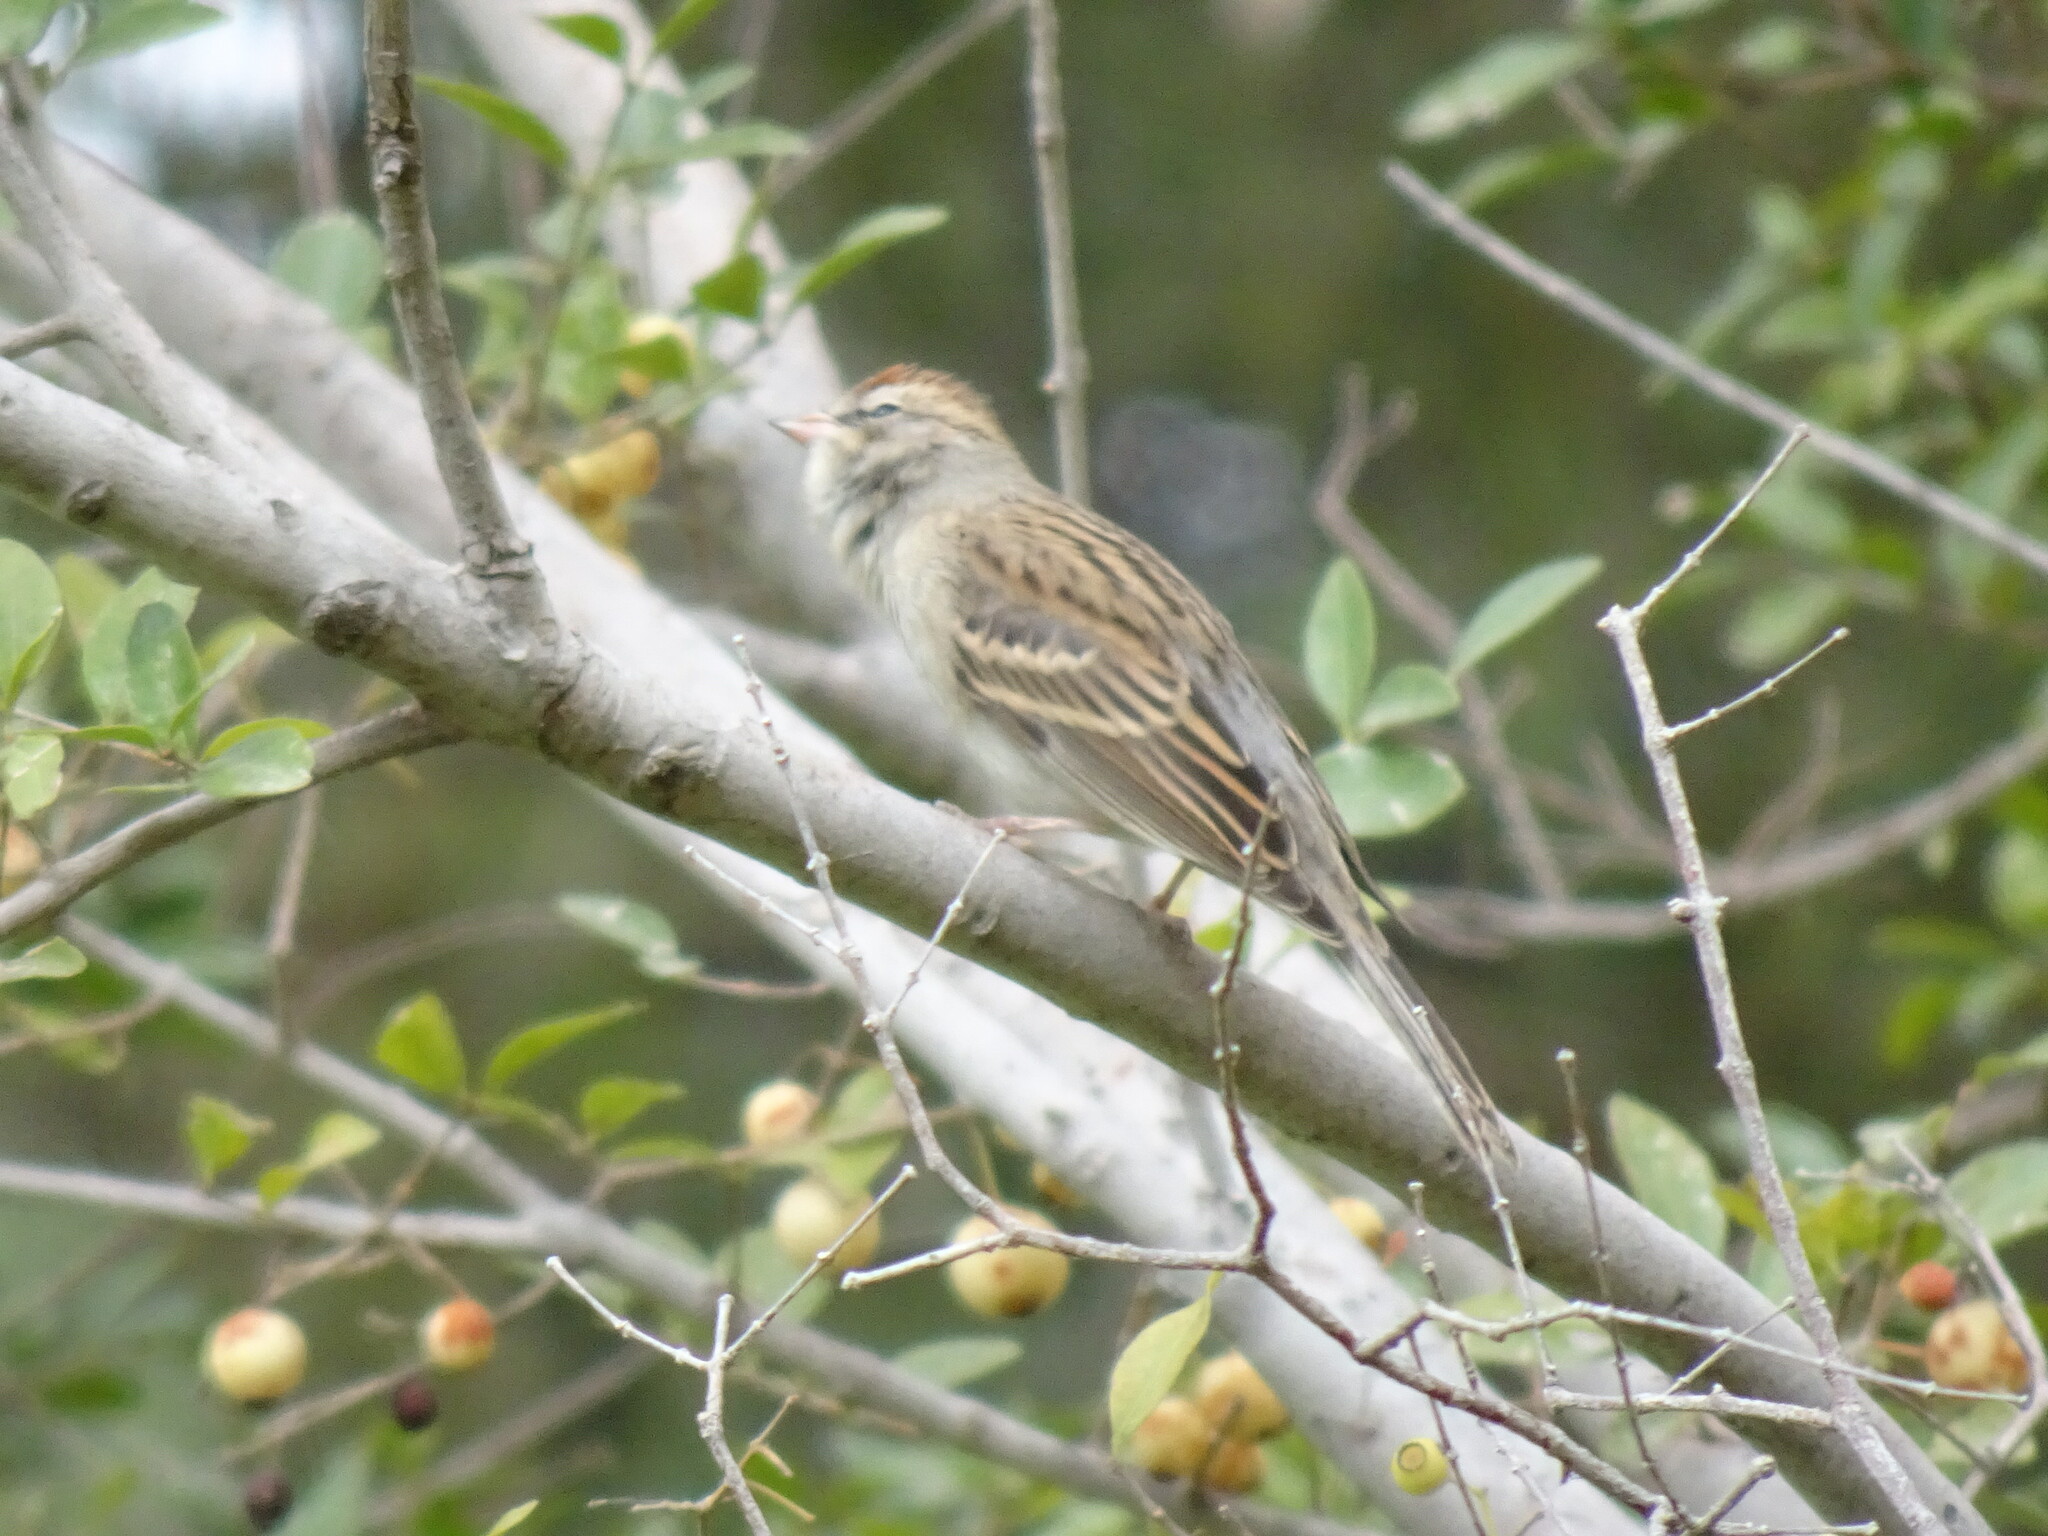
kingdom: Animalia
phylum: Chordata
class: Aves
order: Passeriformes
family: Passerellidae
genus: Spizella
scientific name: Spizella passerina
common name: Chipping sparrow
